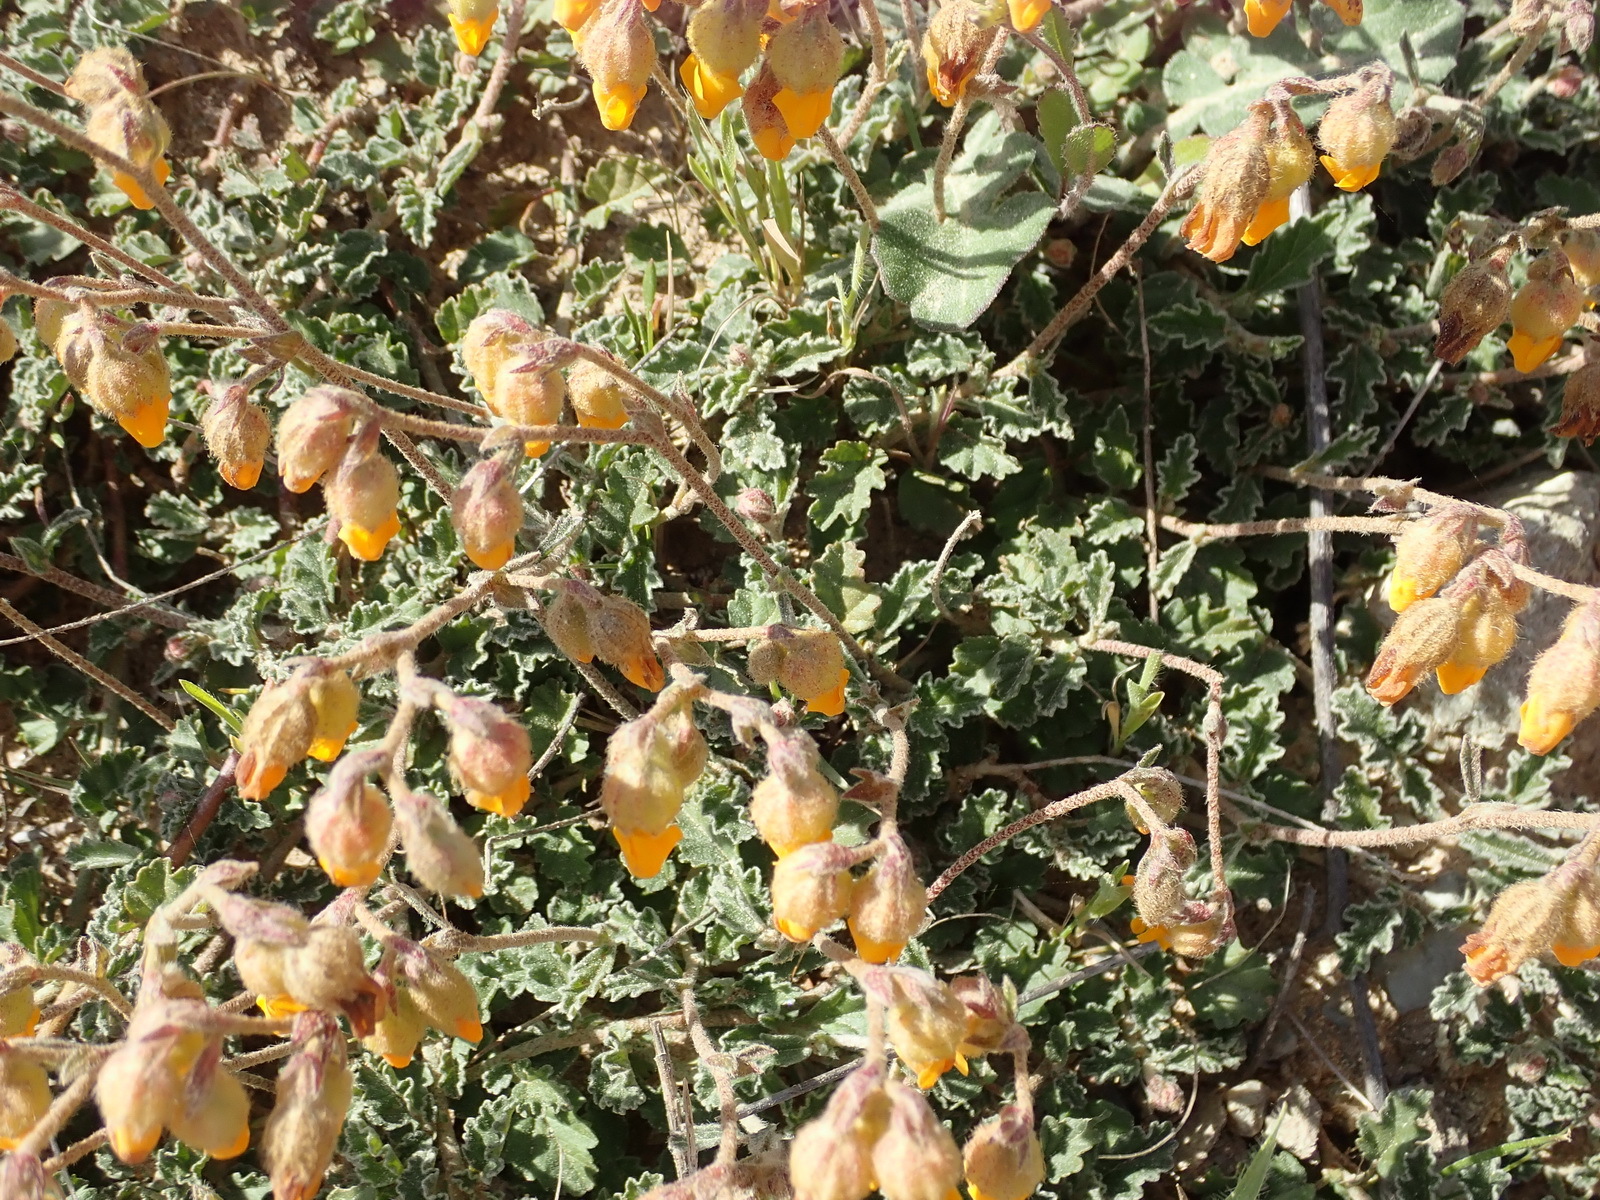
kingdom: Plantae
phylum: Tracheophyta
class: Magnoliopsida
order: Malvales
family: Malvaceae
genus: Hermannia
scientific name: Hermannia decumbens
